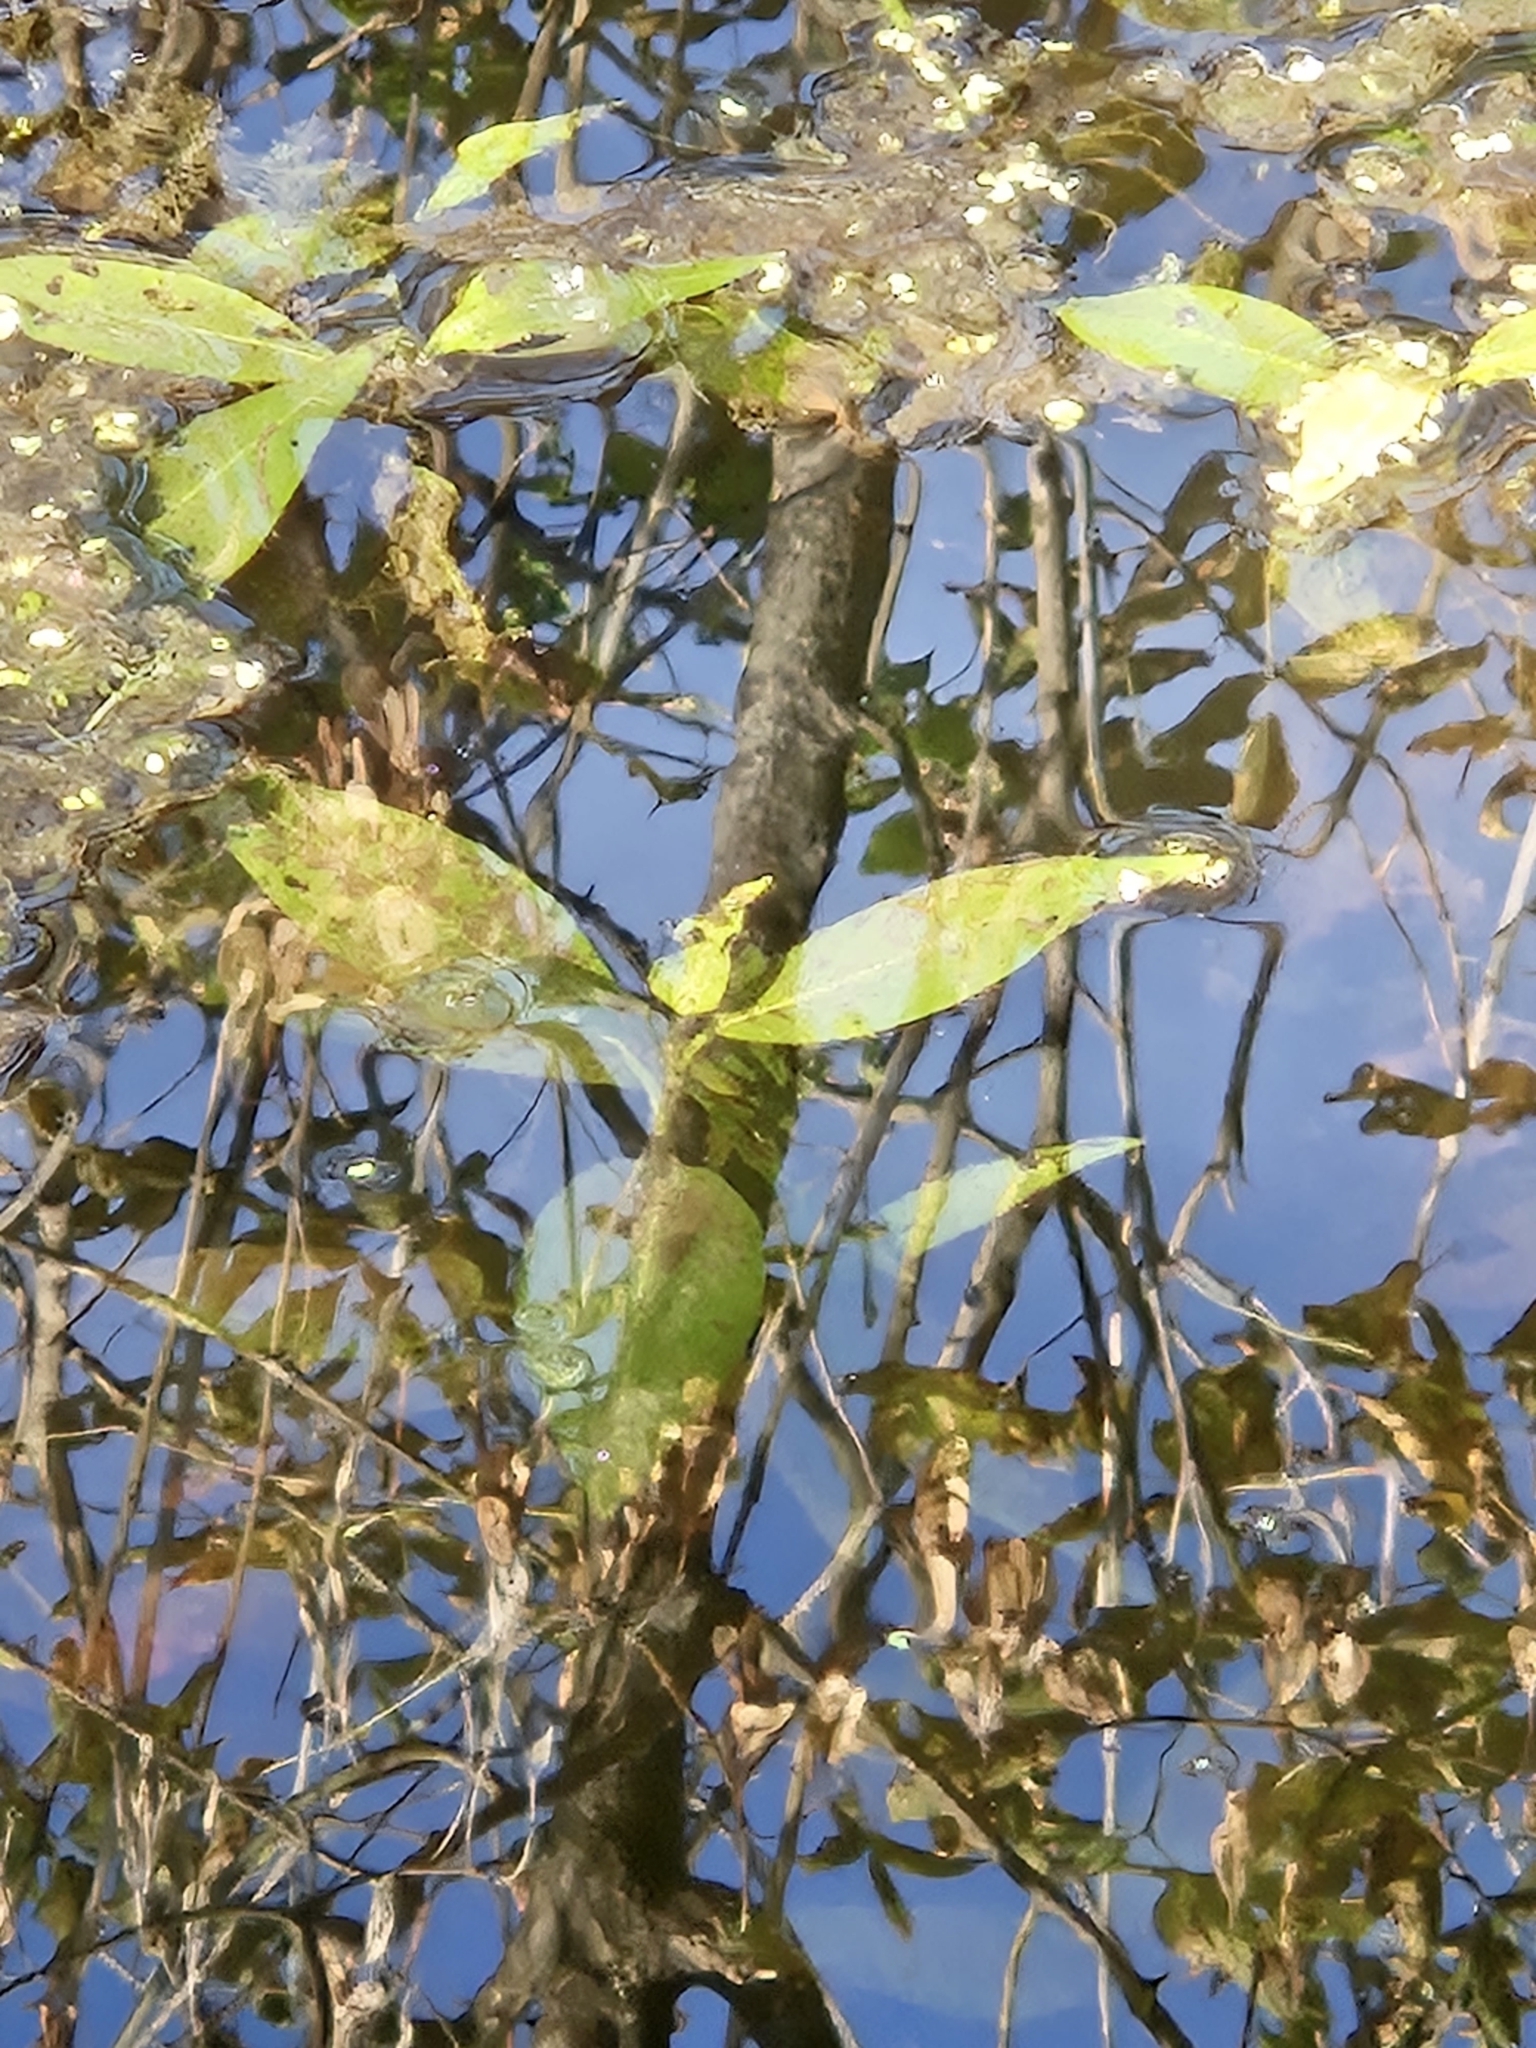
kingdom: Plantae
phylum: Tracheophyta
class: Magnoliopsida
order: Caryophyllales
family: Polygonaceae
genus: Persicaria
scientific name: Persicaria amphibia
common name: Amphibious bistort
